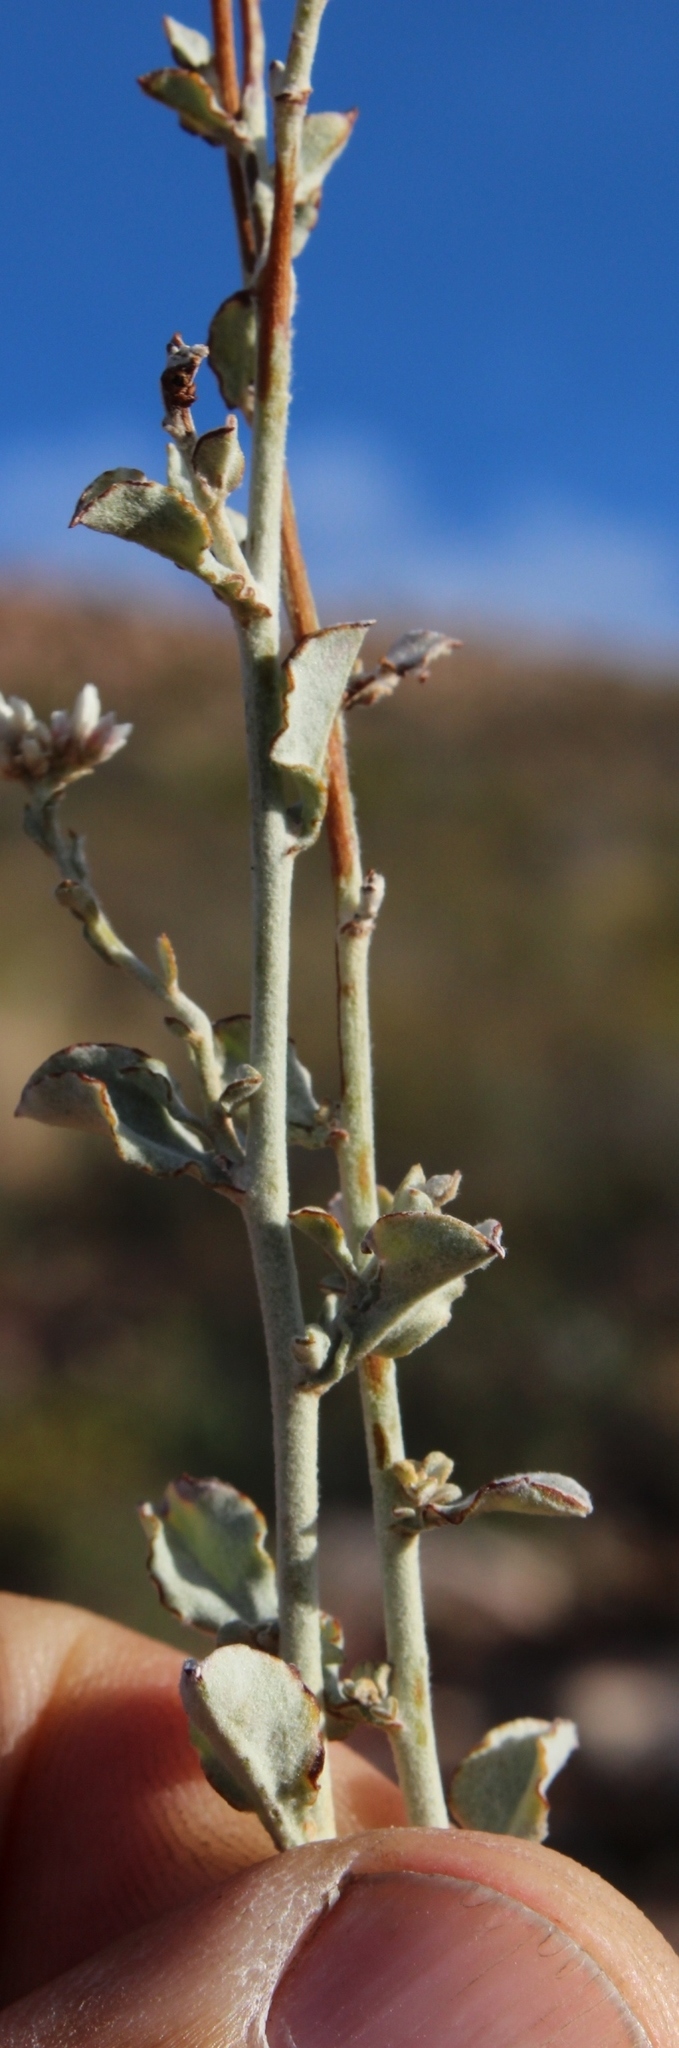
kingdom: Plantae
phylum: Tracheophyta
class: Magnoliopsida
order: Asterales
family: Asteraceae
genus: Helichrysum
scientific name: Helichrysum zeyheri
